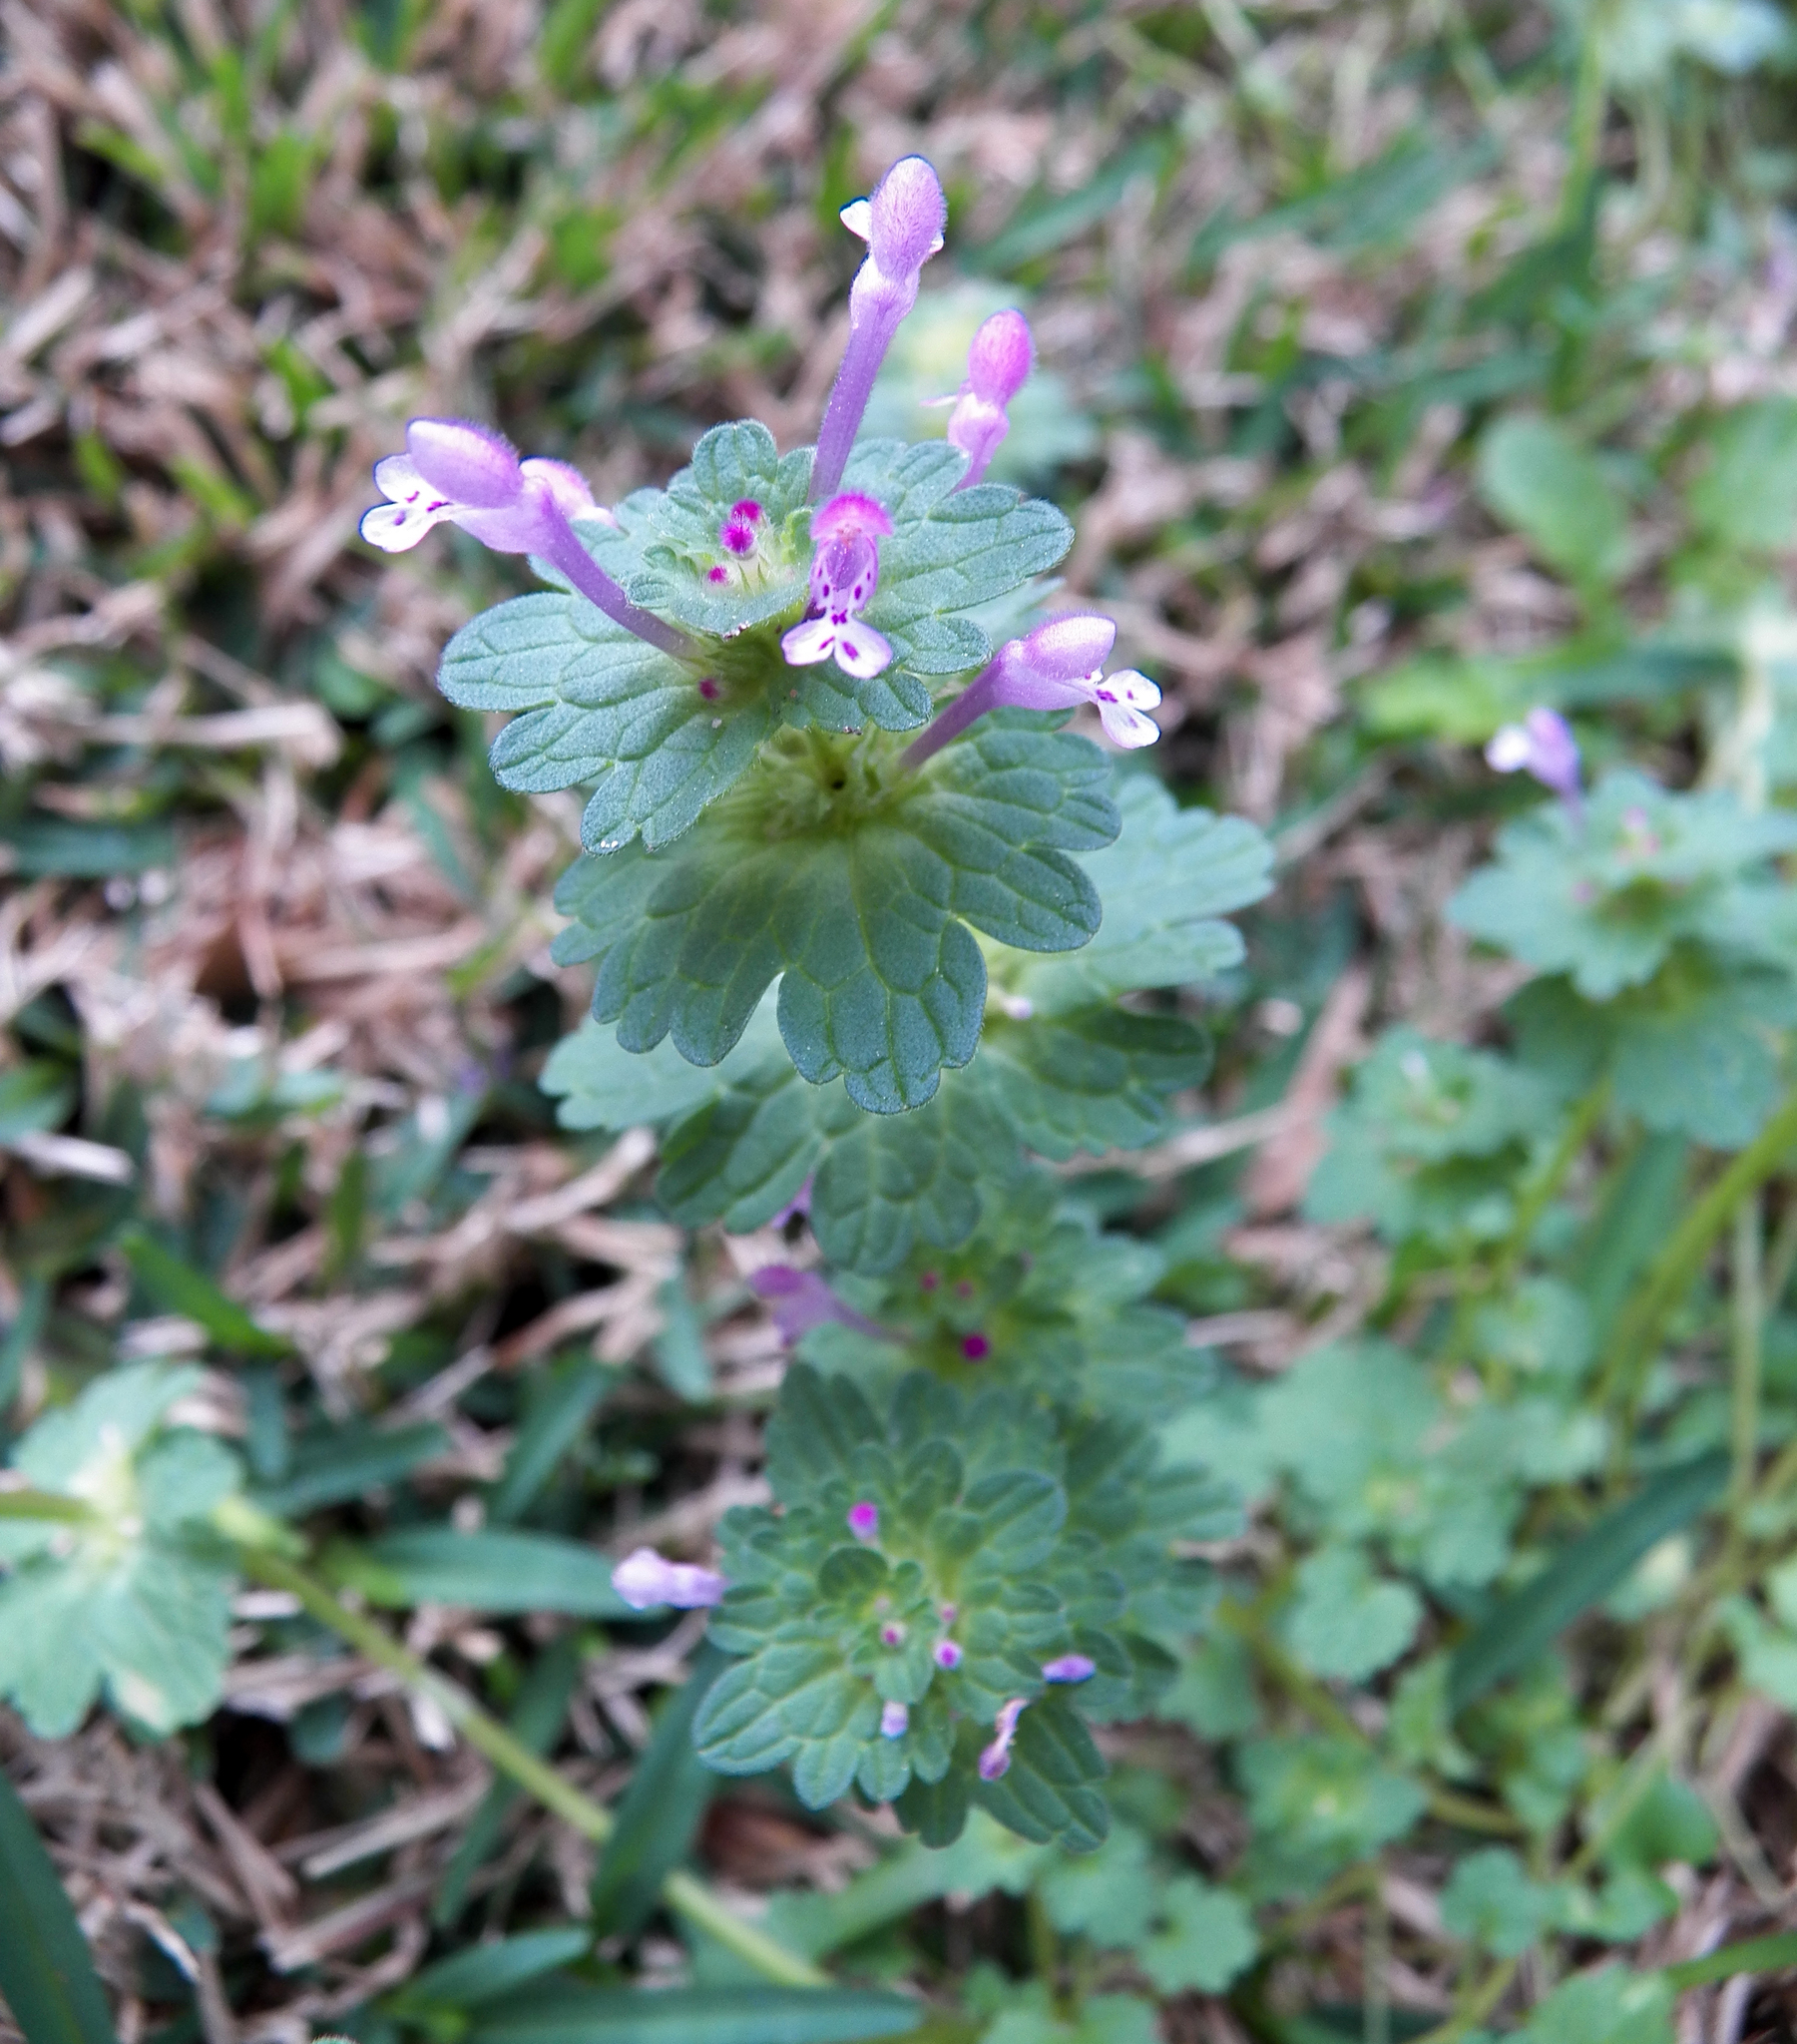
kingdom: Plantae
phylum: Tracheophyta
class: Magnoliopsida
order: Lamiales
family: Lamiaceae
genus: Lamium
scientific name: Lamium amplexicaule
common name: Henbit dead-nettle
